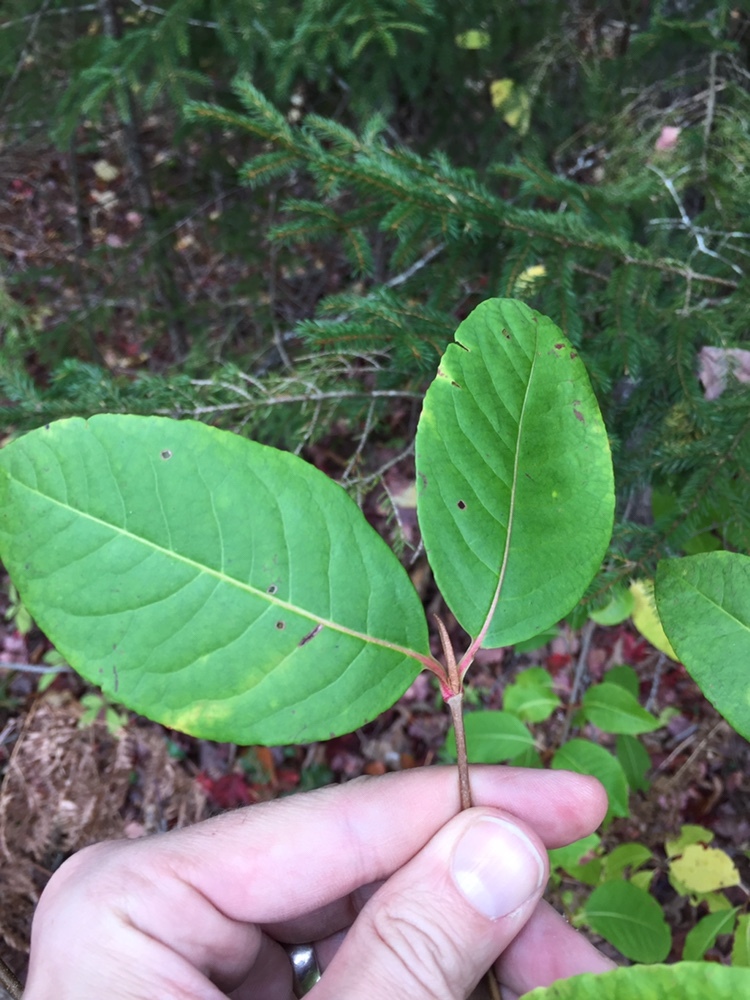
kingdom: Plantae
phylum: Tracheophyta
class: Magnoliopsida
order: Dipsacales
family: Viburnaceae
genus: Viburnum
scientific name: Viburnum cassinoides
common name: Swamp haw
